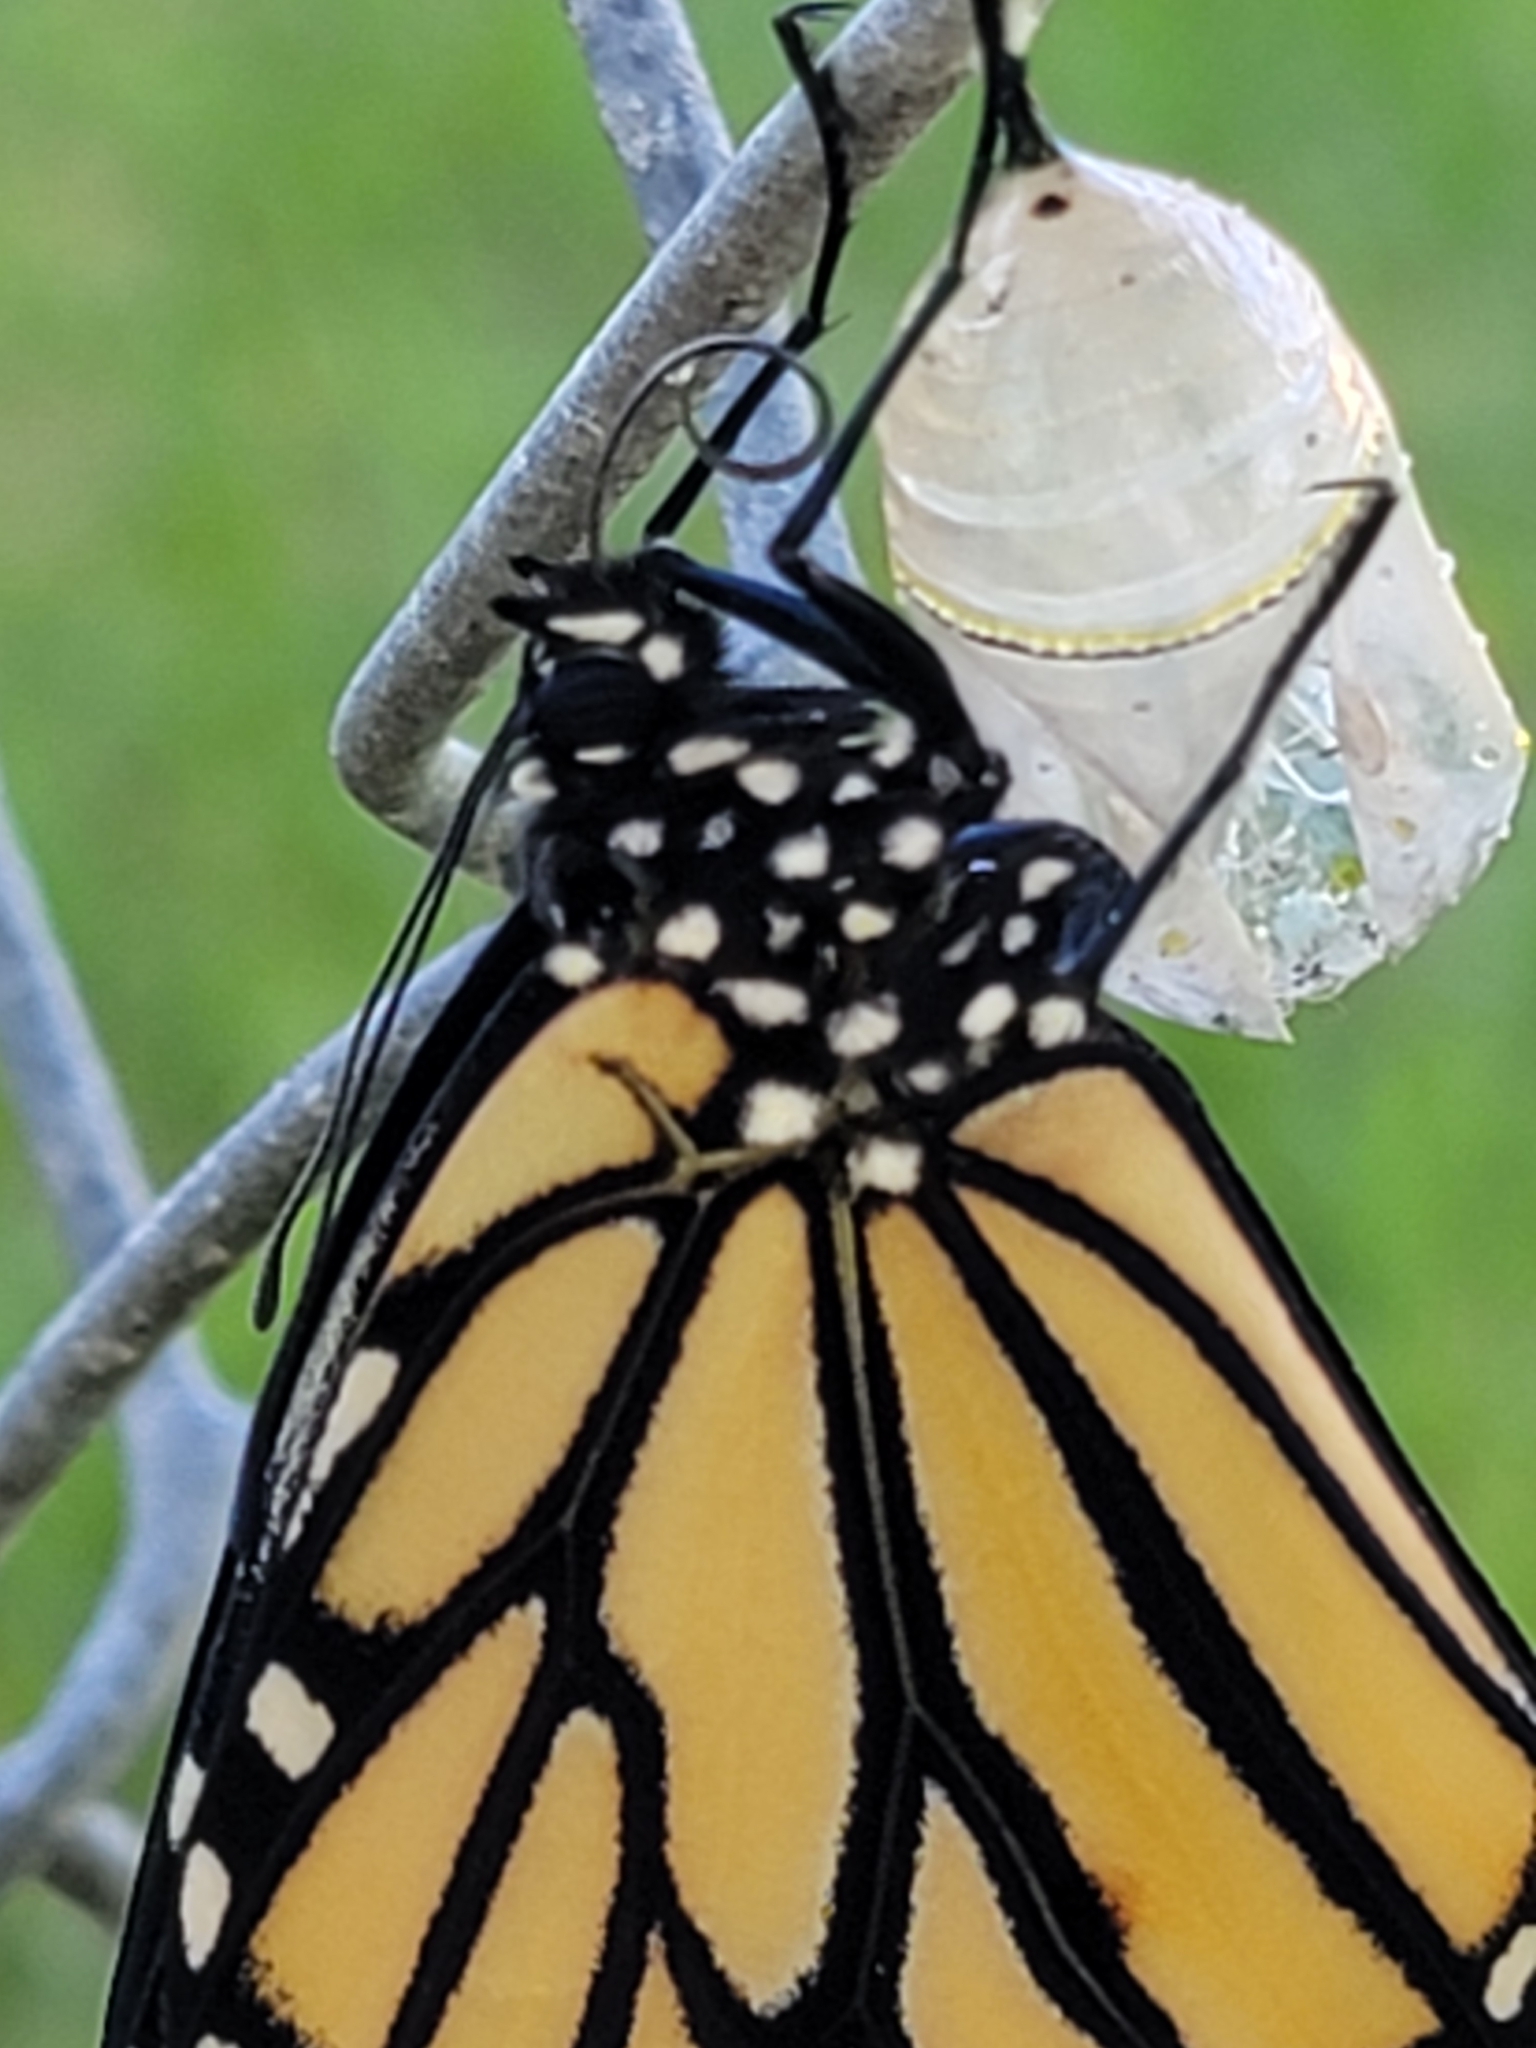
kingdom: Animalia
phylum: Arthropoda
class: Insecta
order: Lepidoptera
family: Nymphalidae
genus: Danaus
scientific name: Danaus plexippus
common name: Monarch
